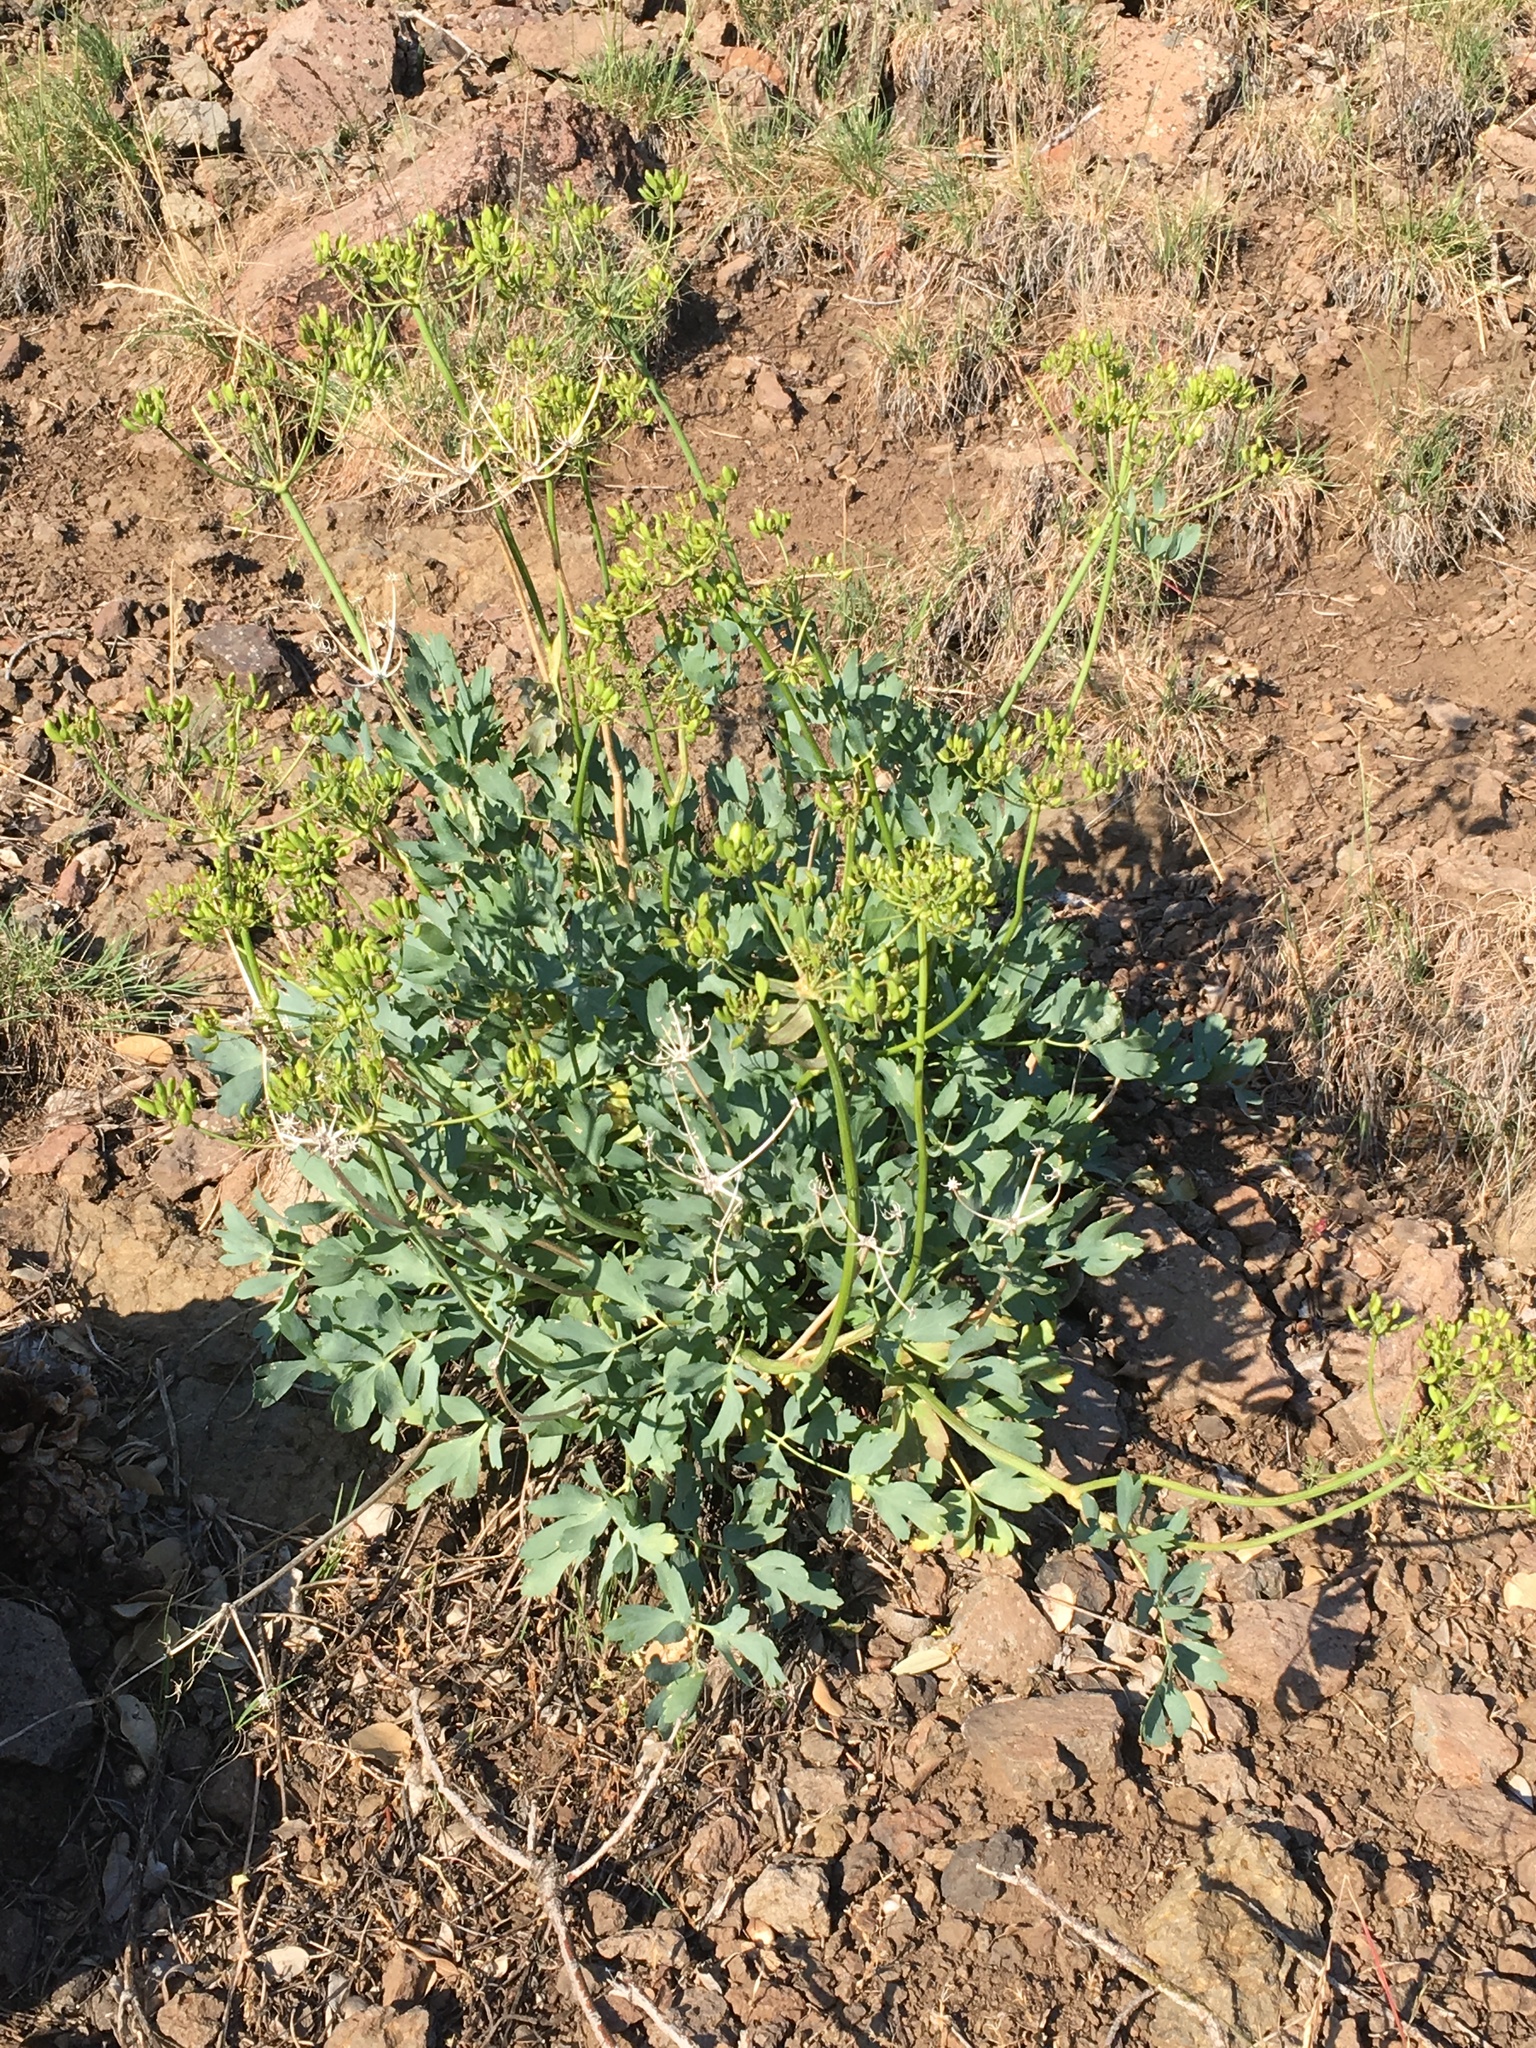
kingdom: Plantae
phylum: Tracheophyta
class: Magnoliopsida
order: Apiales
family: Apiaceae
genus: Lomatium
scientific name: Lomatium californicum
